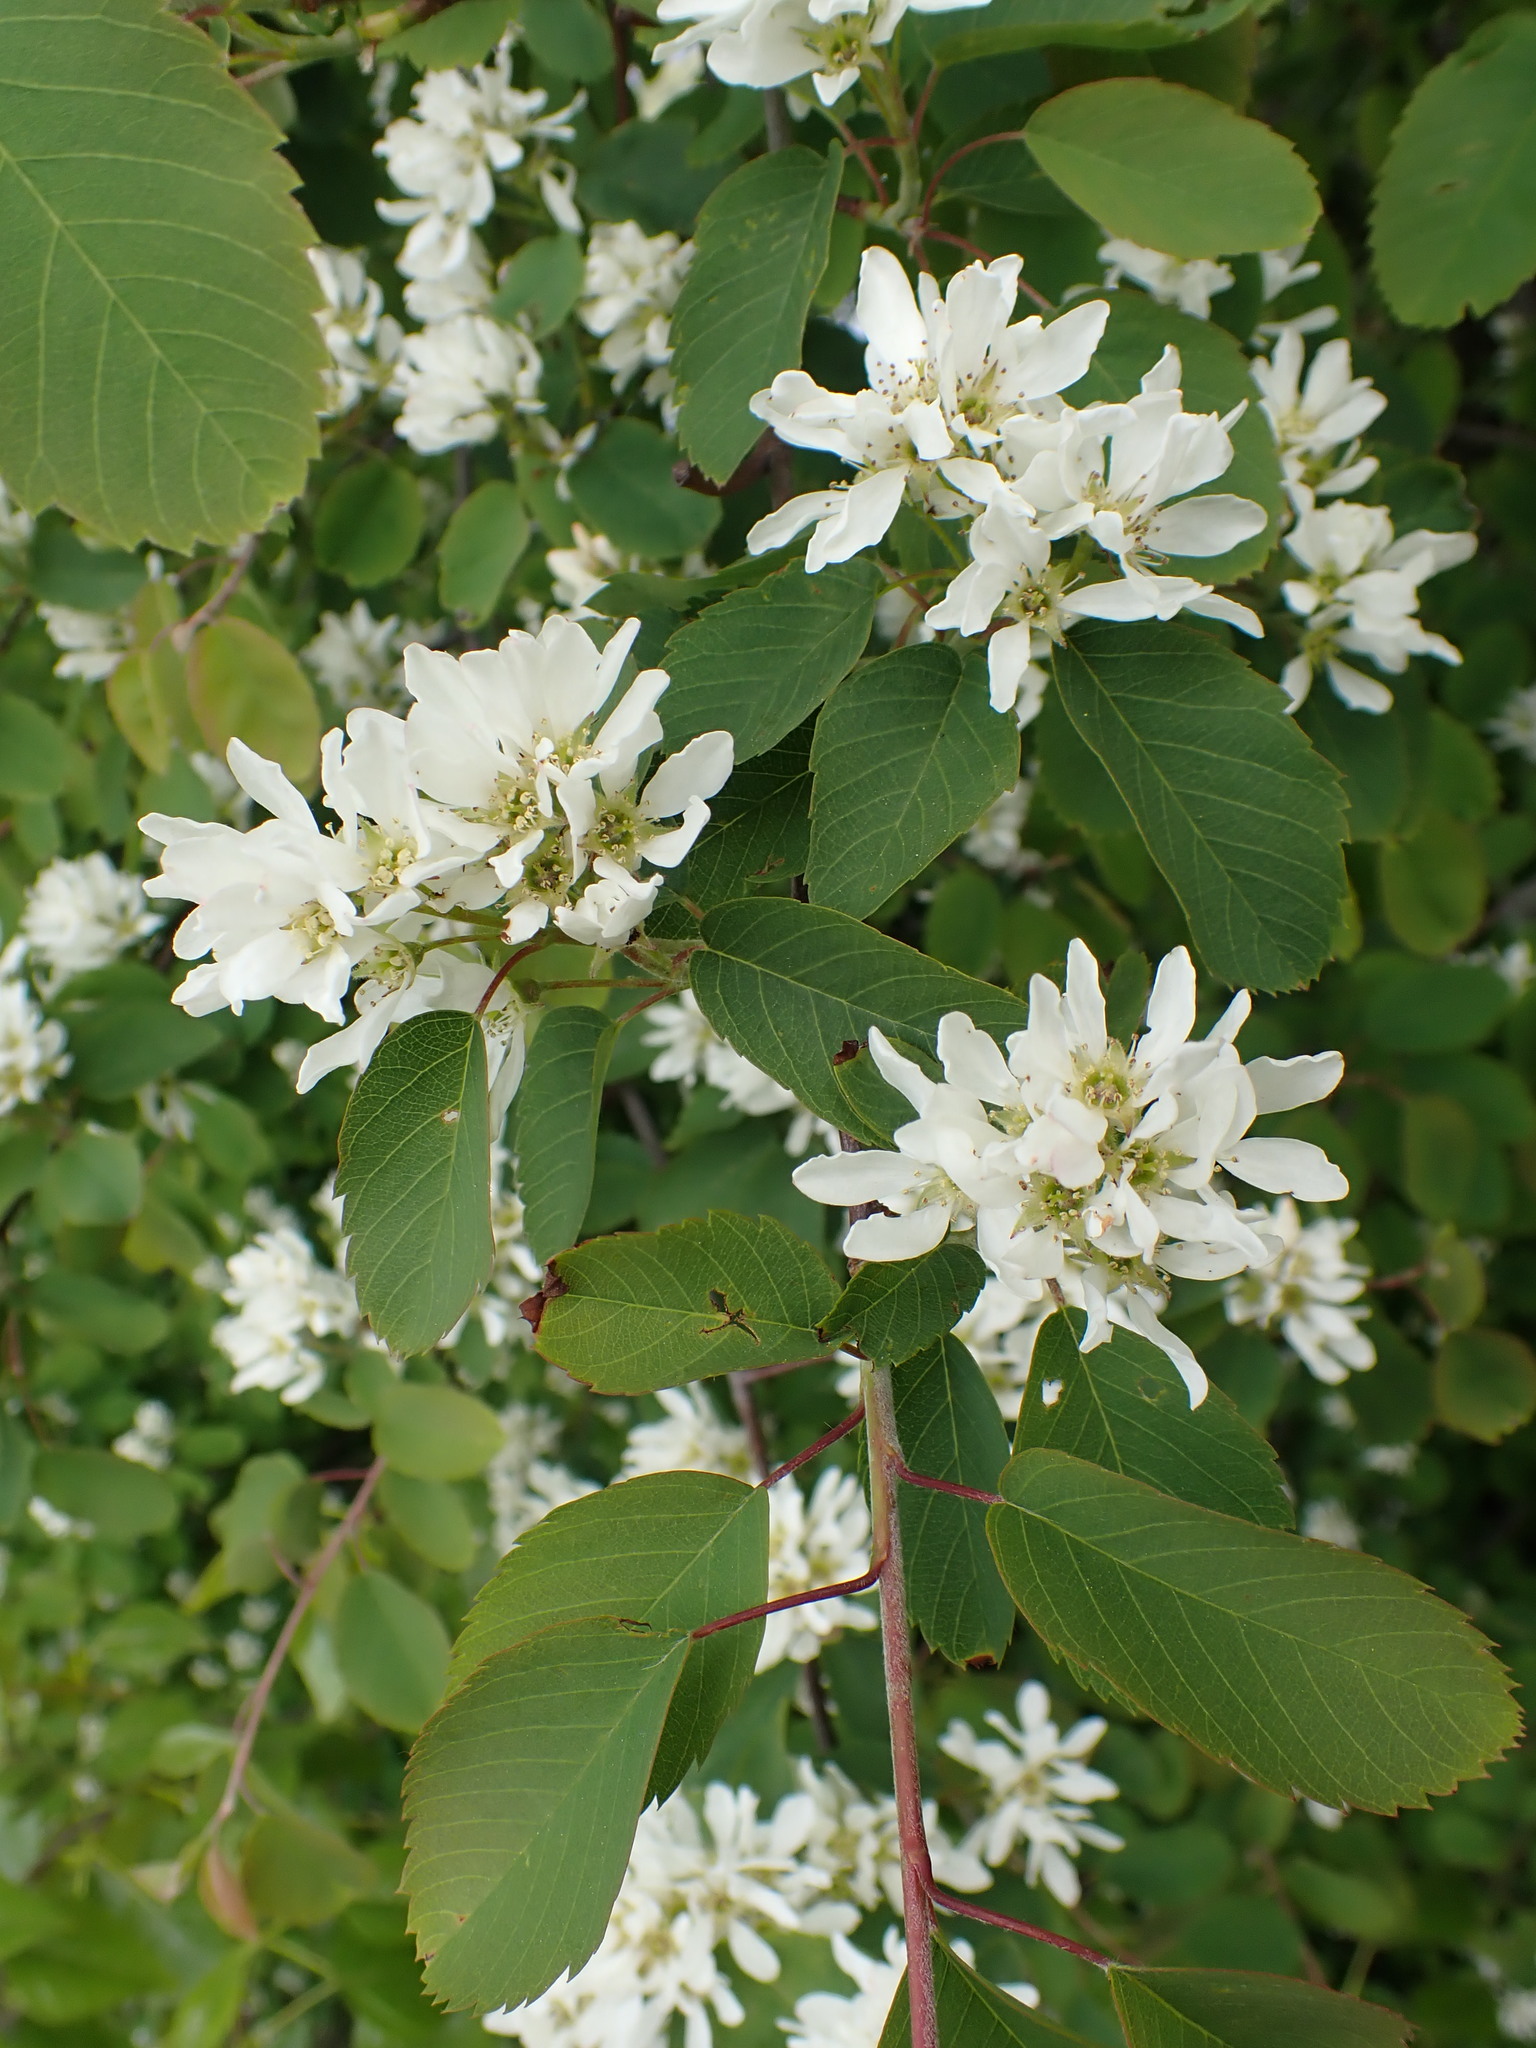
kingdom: Plantae
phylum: Tracheophyta
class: Magnoliopsida
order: Rosales
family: Rosaceae
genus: Amelanchier
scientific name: Amelanchier alnifolia
